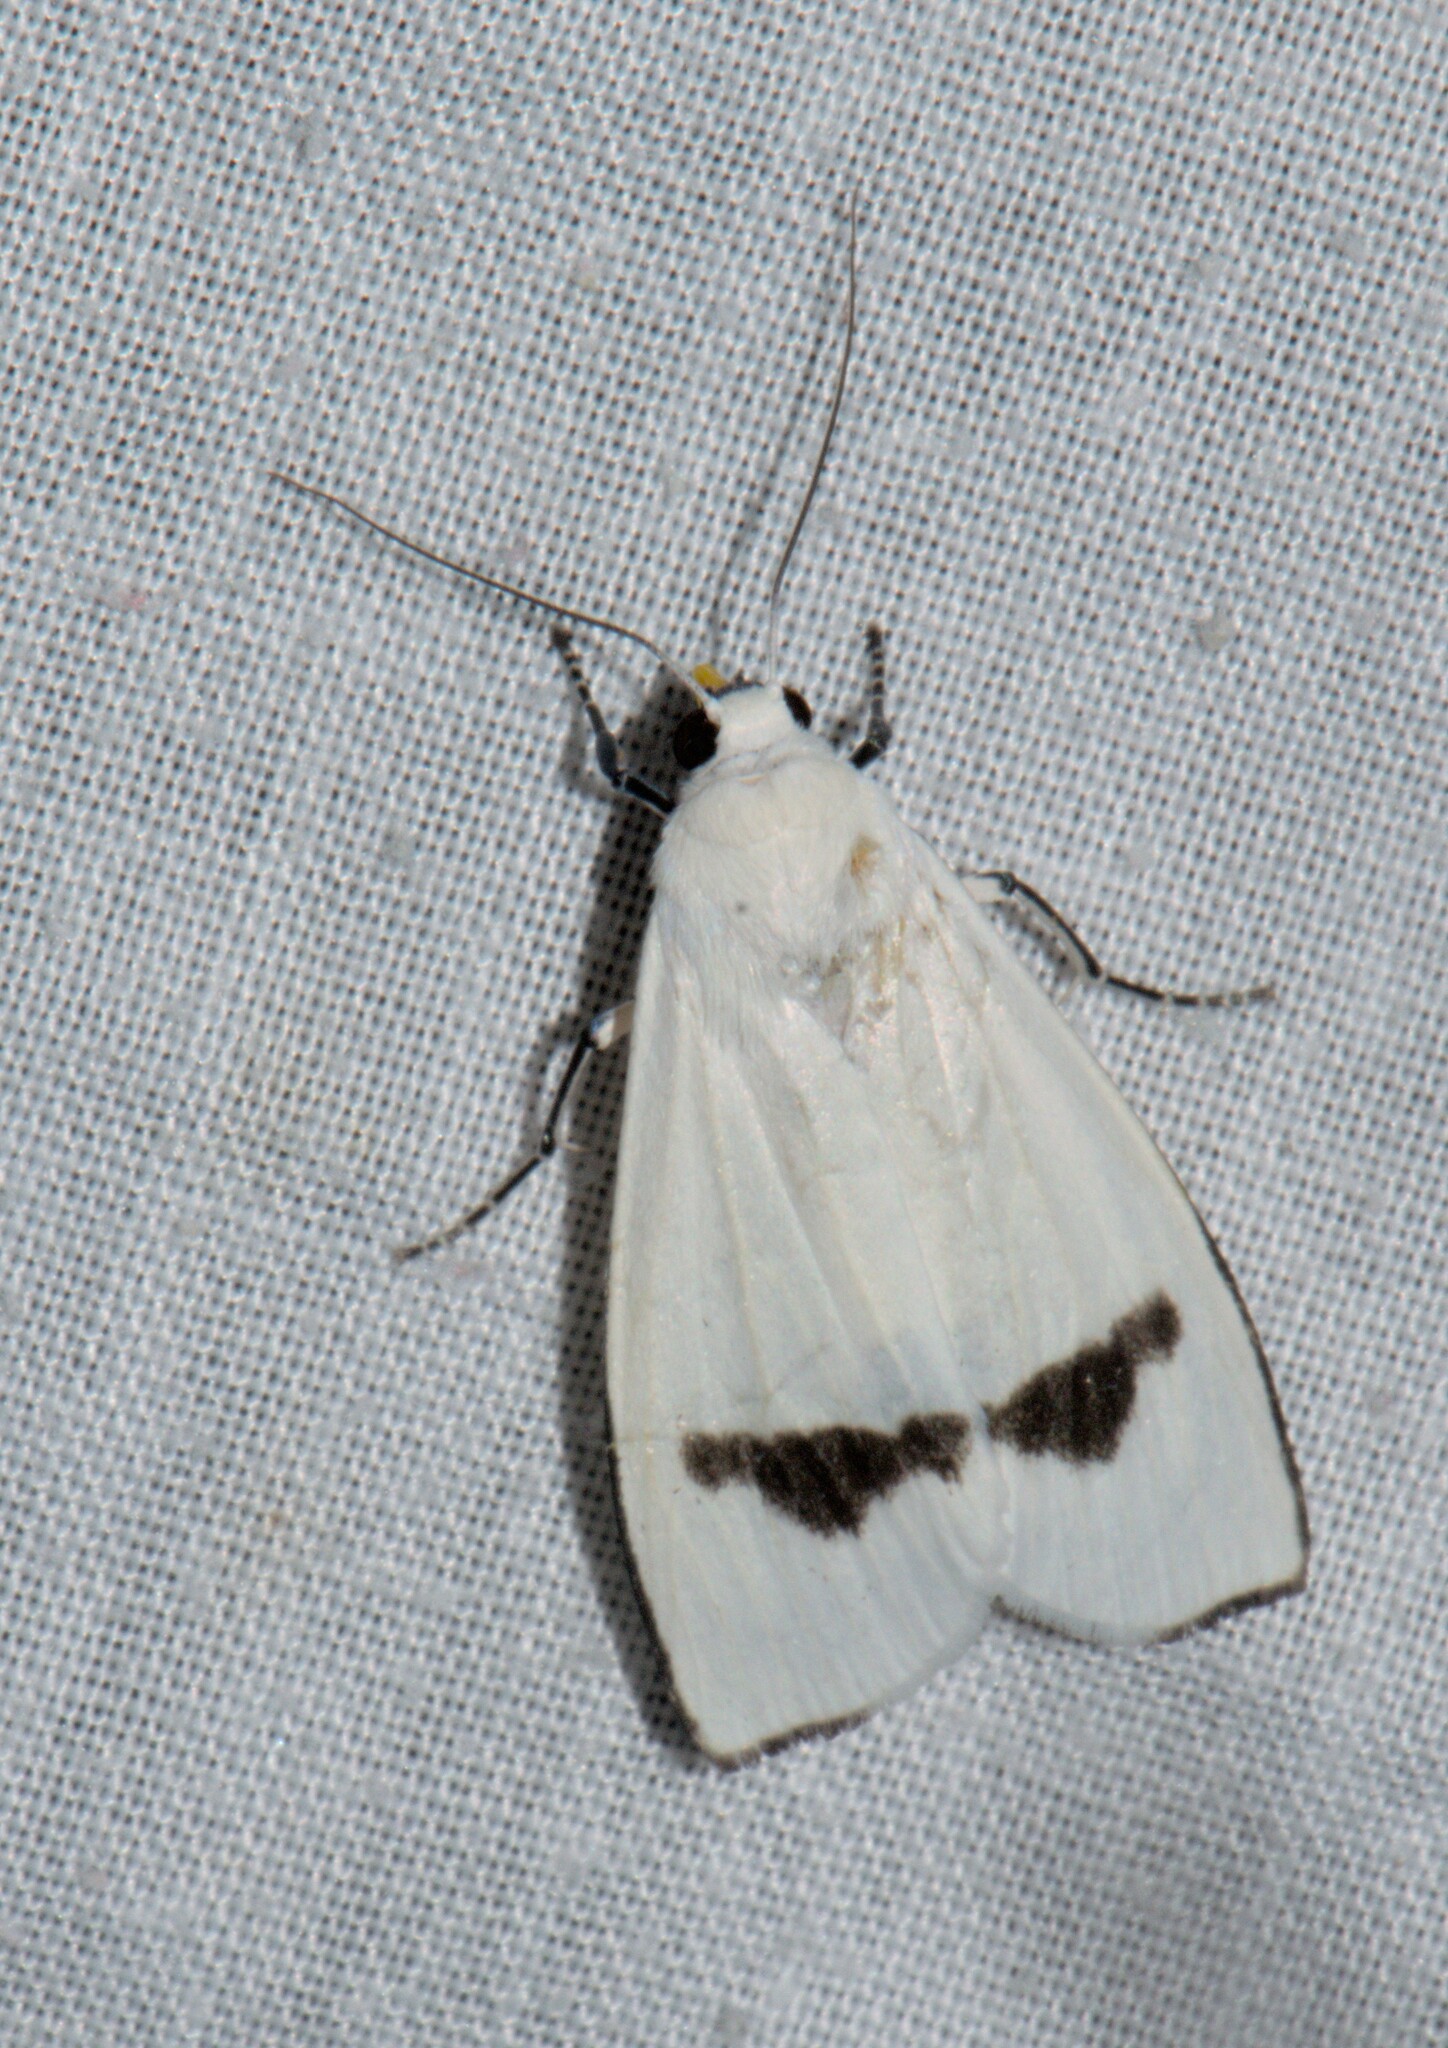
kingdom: Animalia
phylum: Arthropoda
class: Insecta
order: Lepidoptera
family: Erebidae
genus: Vamuna
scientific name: Vamuna remelana
